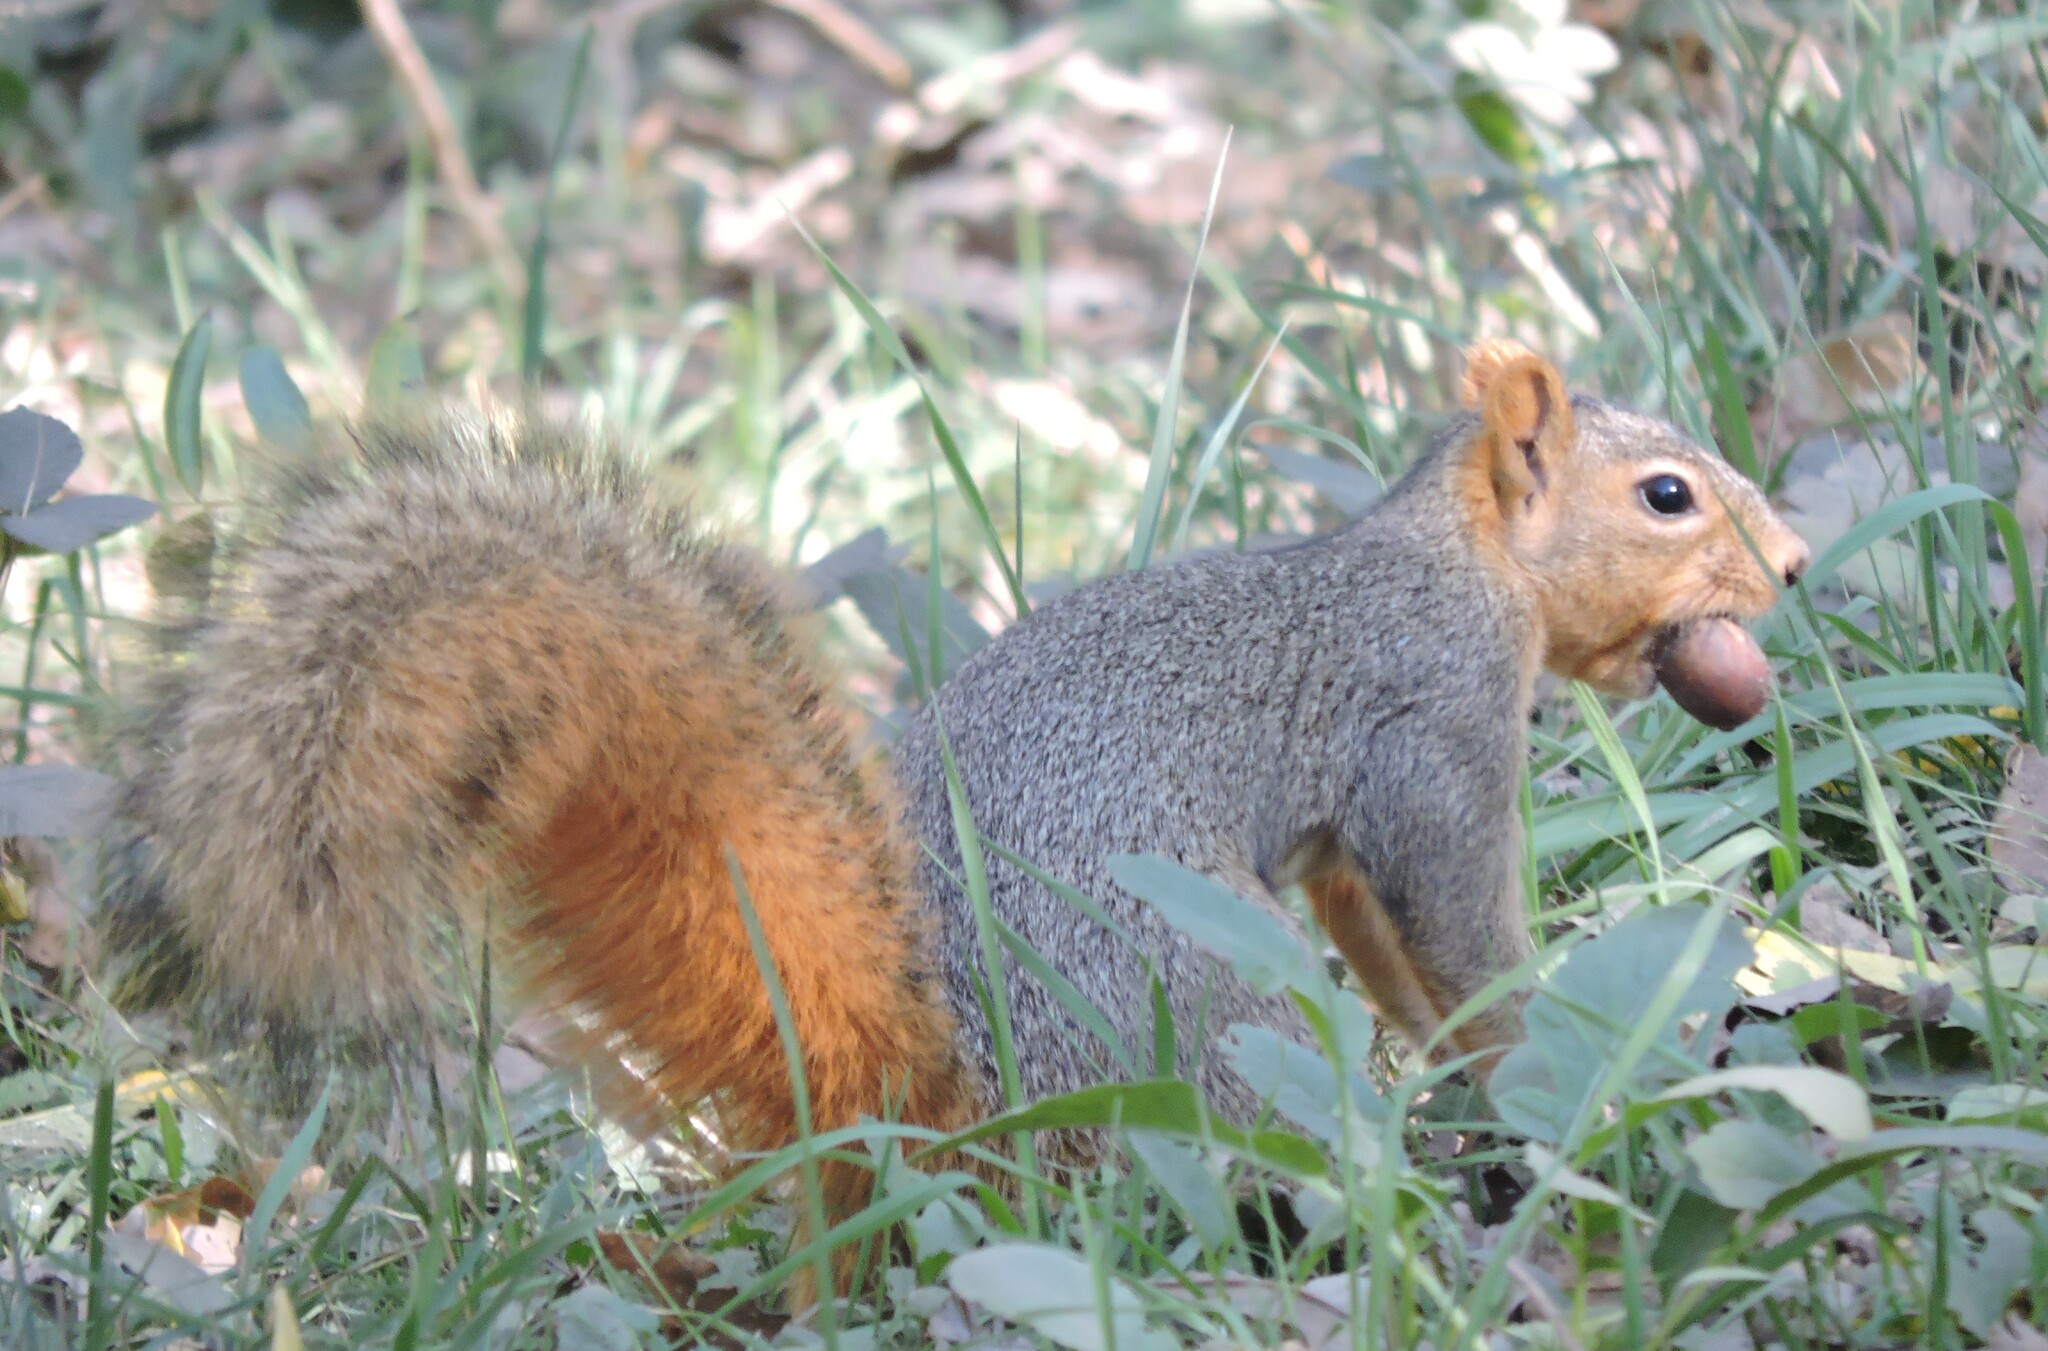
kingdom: Animalia
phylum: Chordata
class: Mammalia
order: Rodentia
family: Sciuridae
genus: Sciurus
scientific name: Sciurus niger
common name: Fox squirrel
